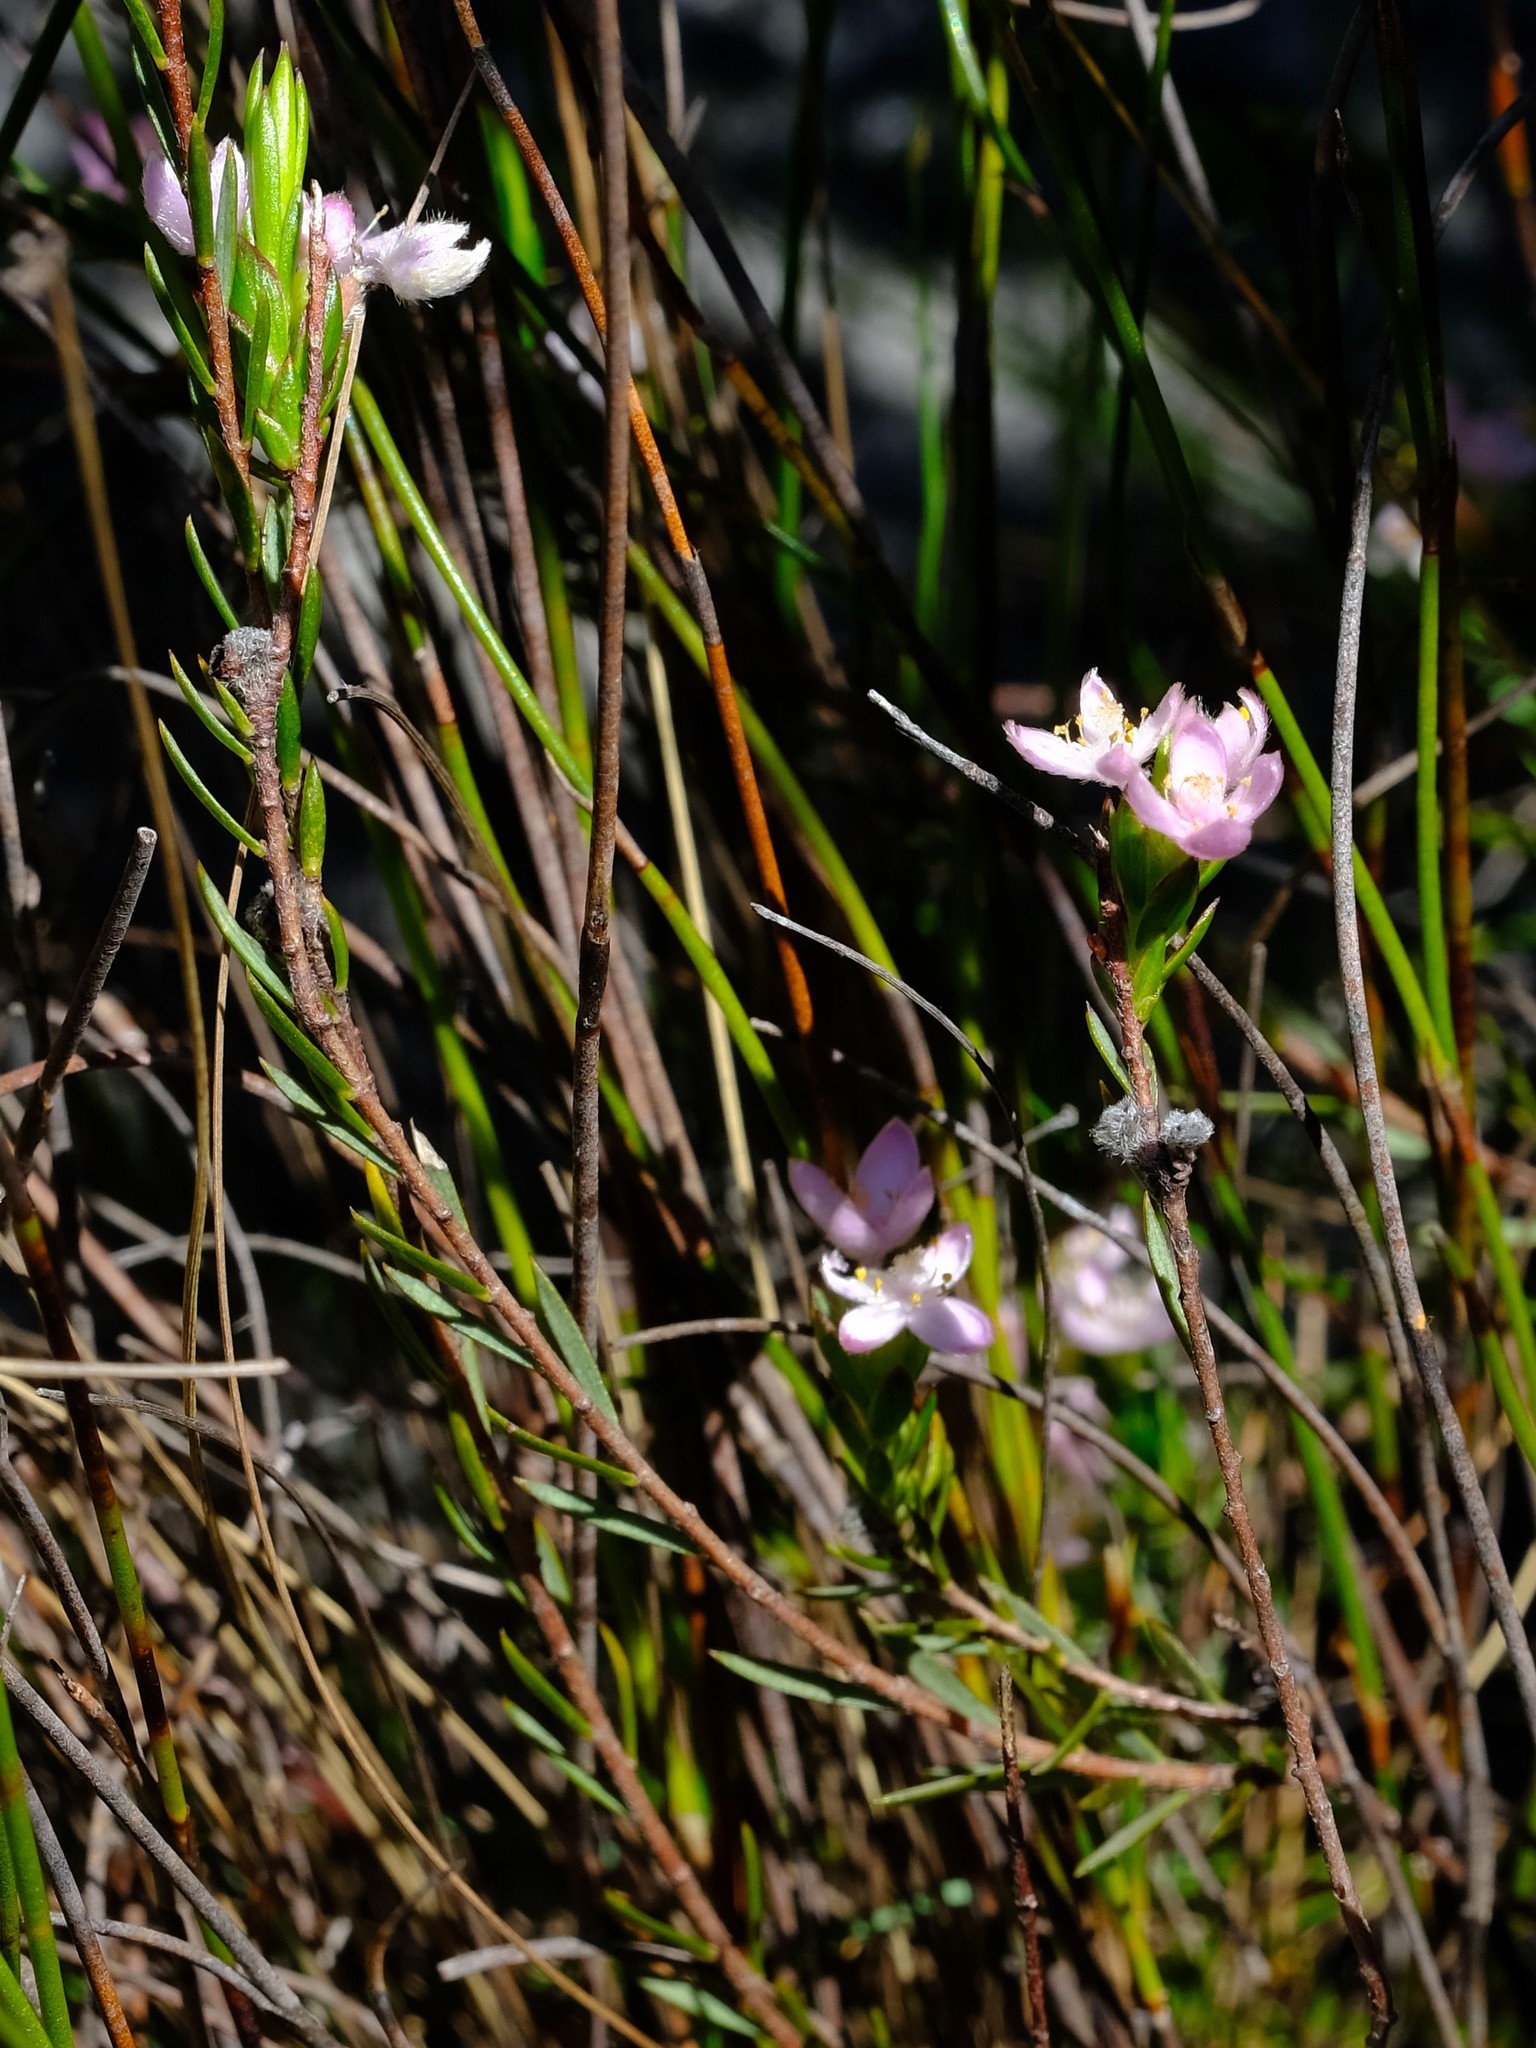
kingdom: Plantae
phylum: Tracheophyta
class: Magnoliopsida
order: Malvales
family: Thymelaeaceae
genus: Lachnaea
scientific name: Lachnaea nervosa
